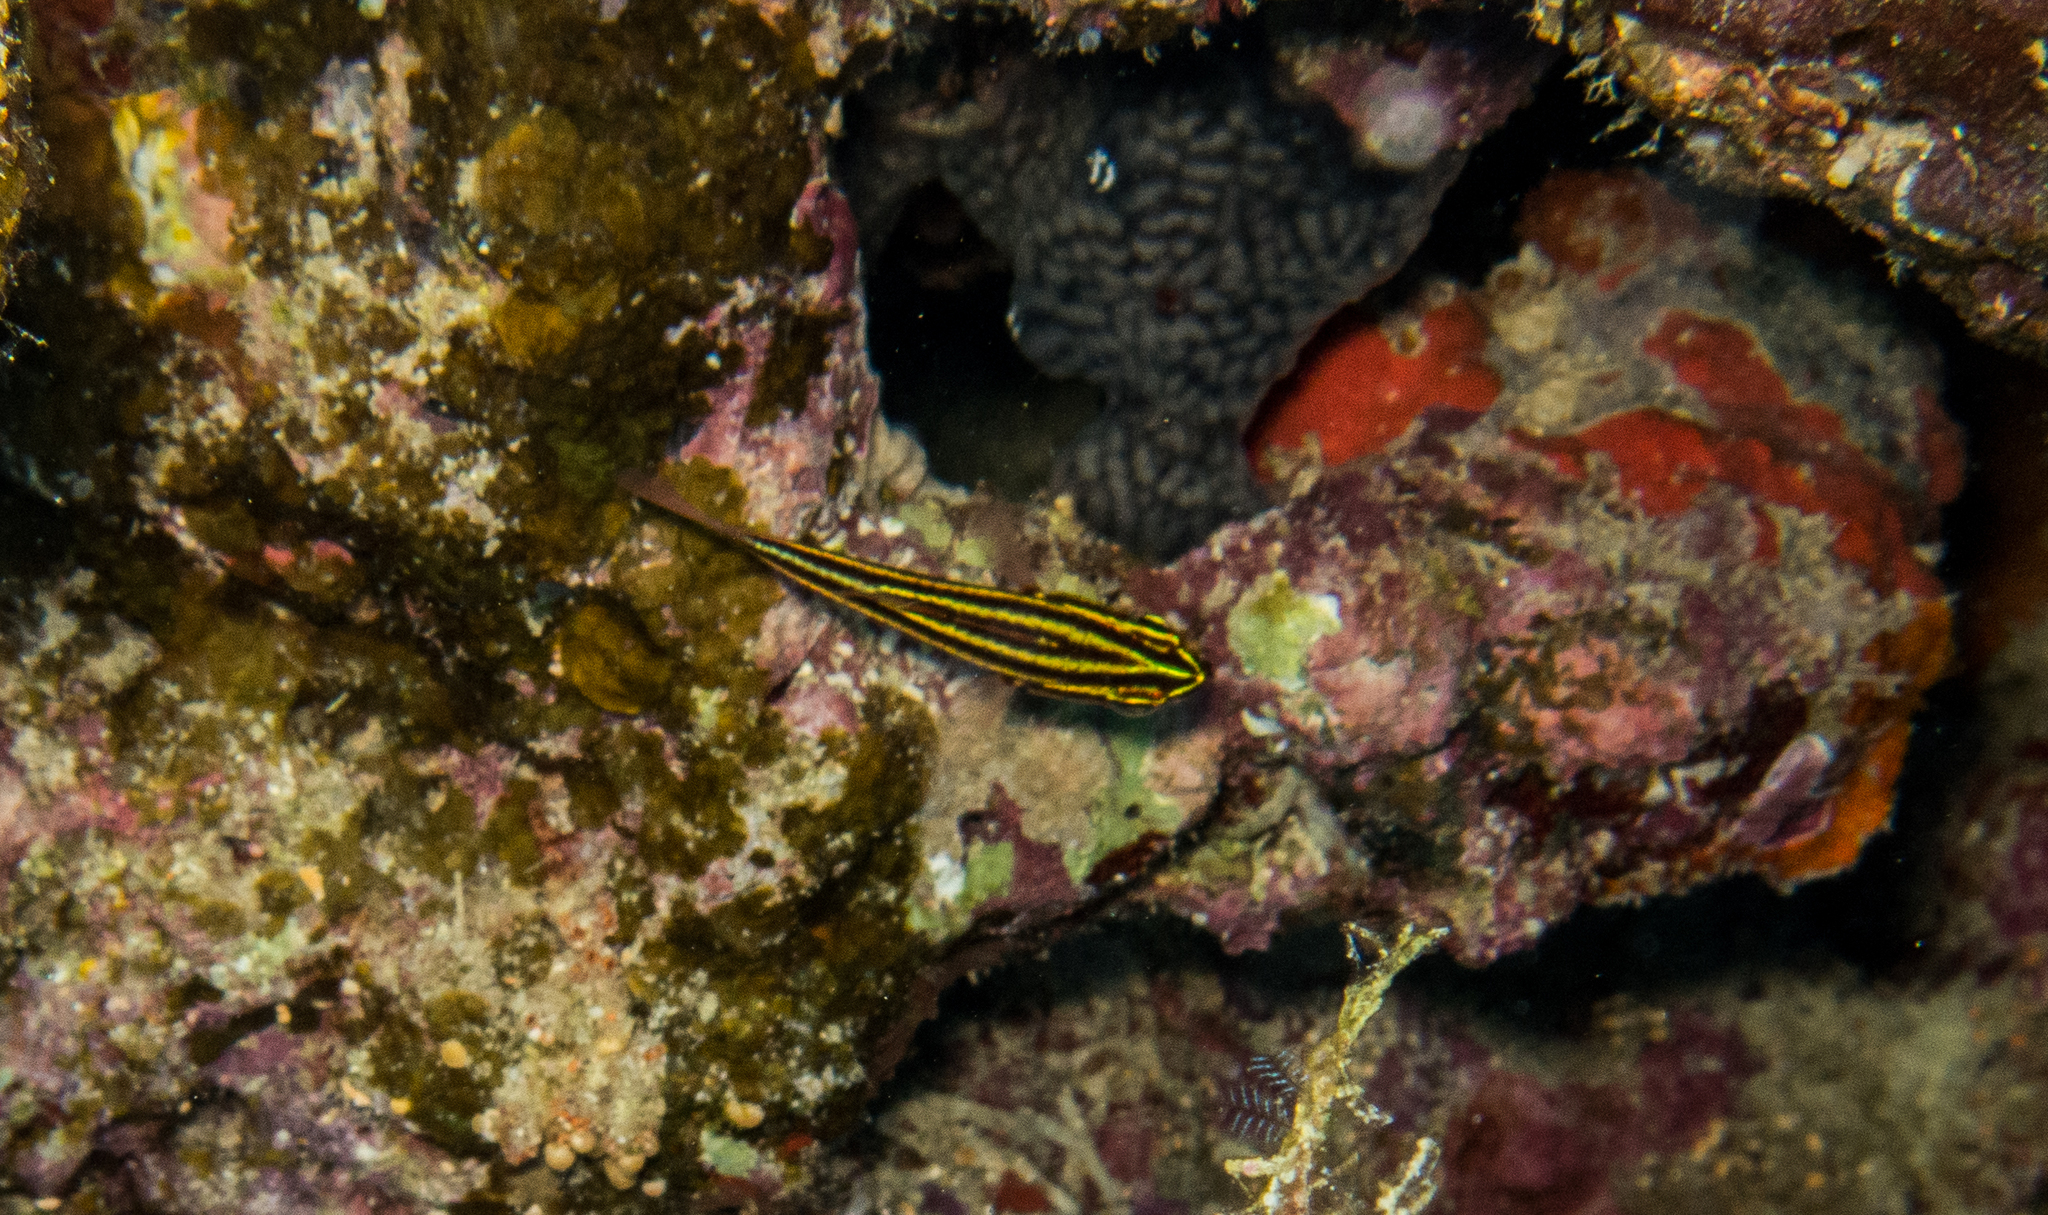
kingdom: Animalia
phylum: Chordata
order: Perciformes
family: Apogonidae
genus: Ostorhinchus
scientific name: Ostorhinchus nigrofasciatus
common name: Blackstripe cardinalfish
